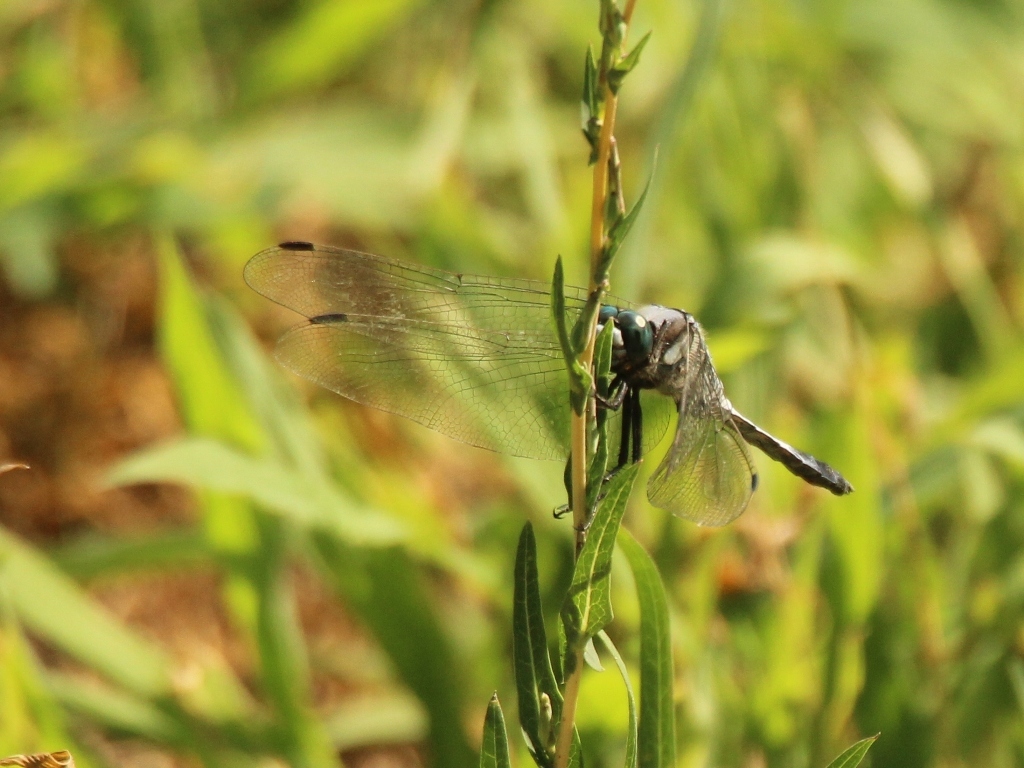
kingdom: Animalia
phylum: Arthropoda
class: Insecta
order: Odonata
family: Libellulidae
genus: Orthetrum
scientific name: Orthetrum albistylum
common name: White-tailed skimmer
